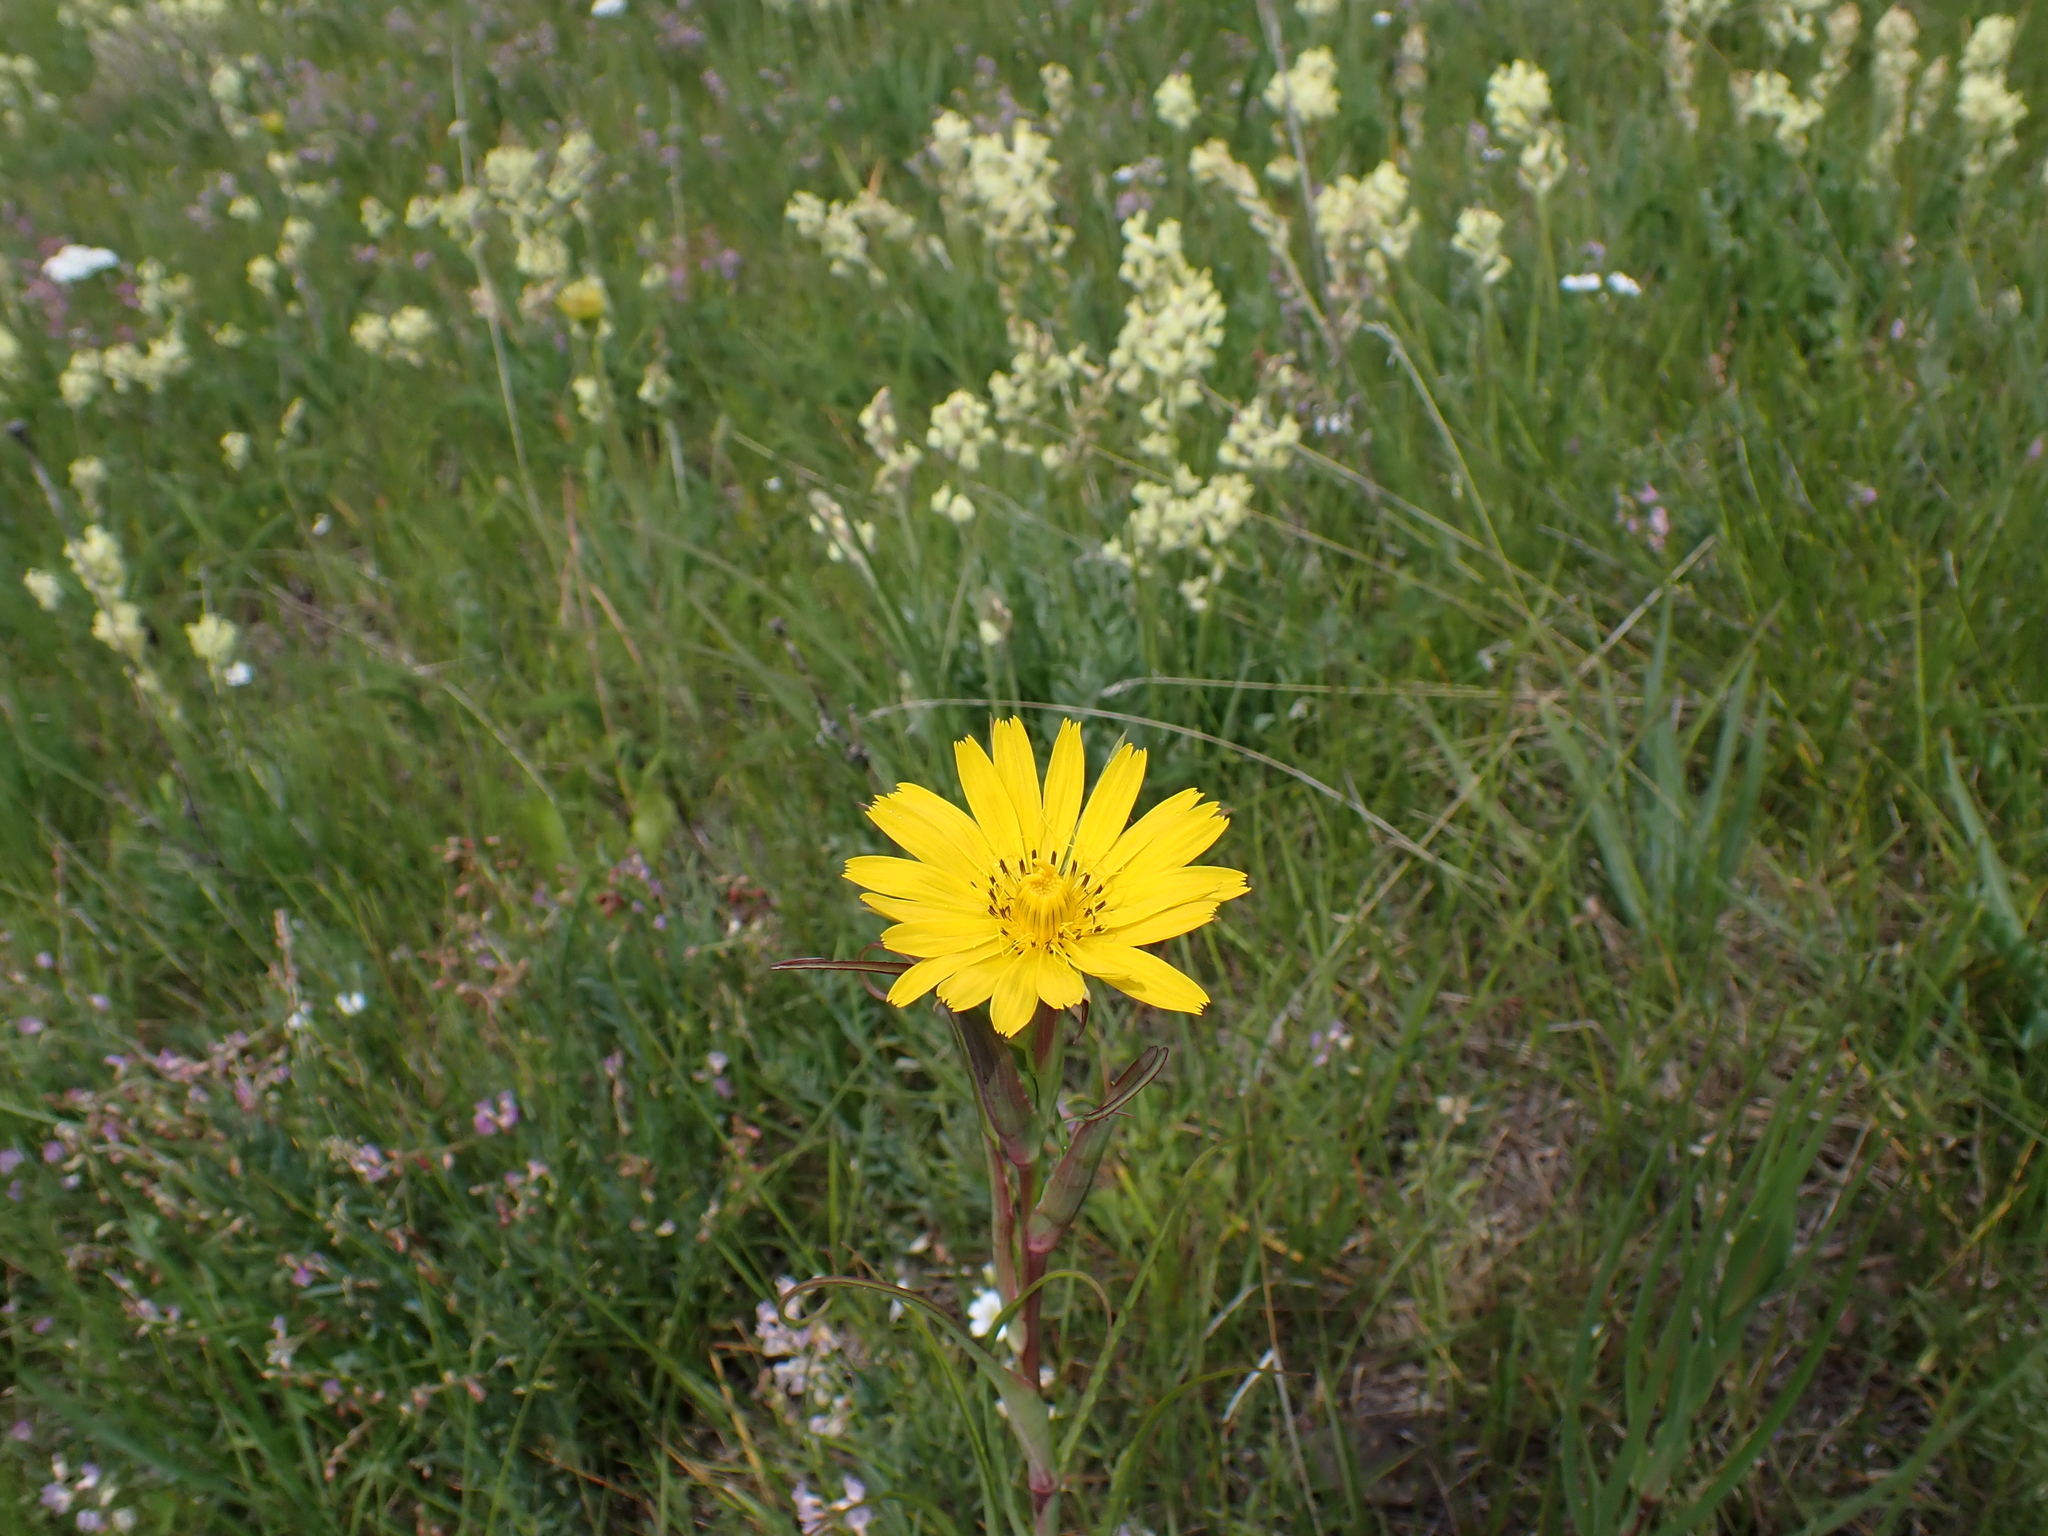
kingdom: Plantae
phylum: Tracheophyta
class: Magnoliopsida
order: Asterales
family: Asteraceae
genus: Tragopogon
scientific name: Tragopogon pratensis
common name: Goat's-beard
